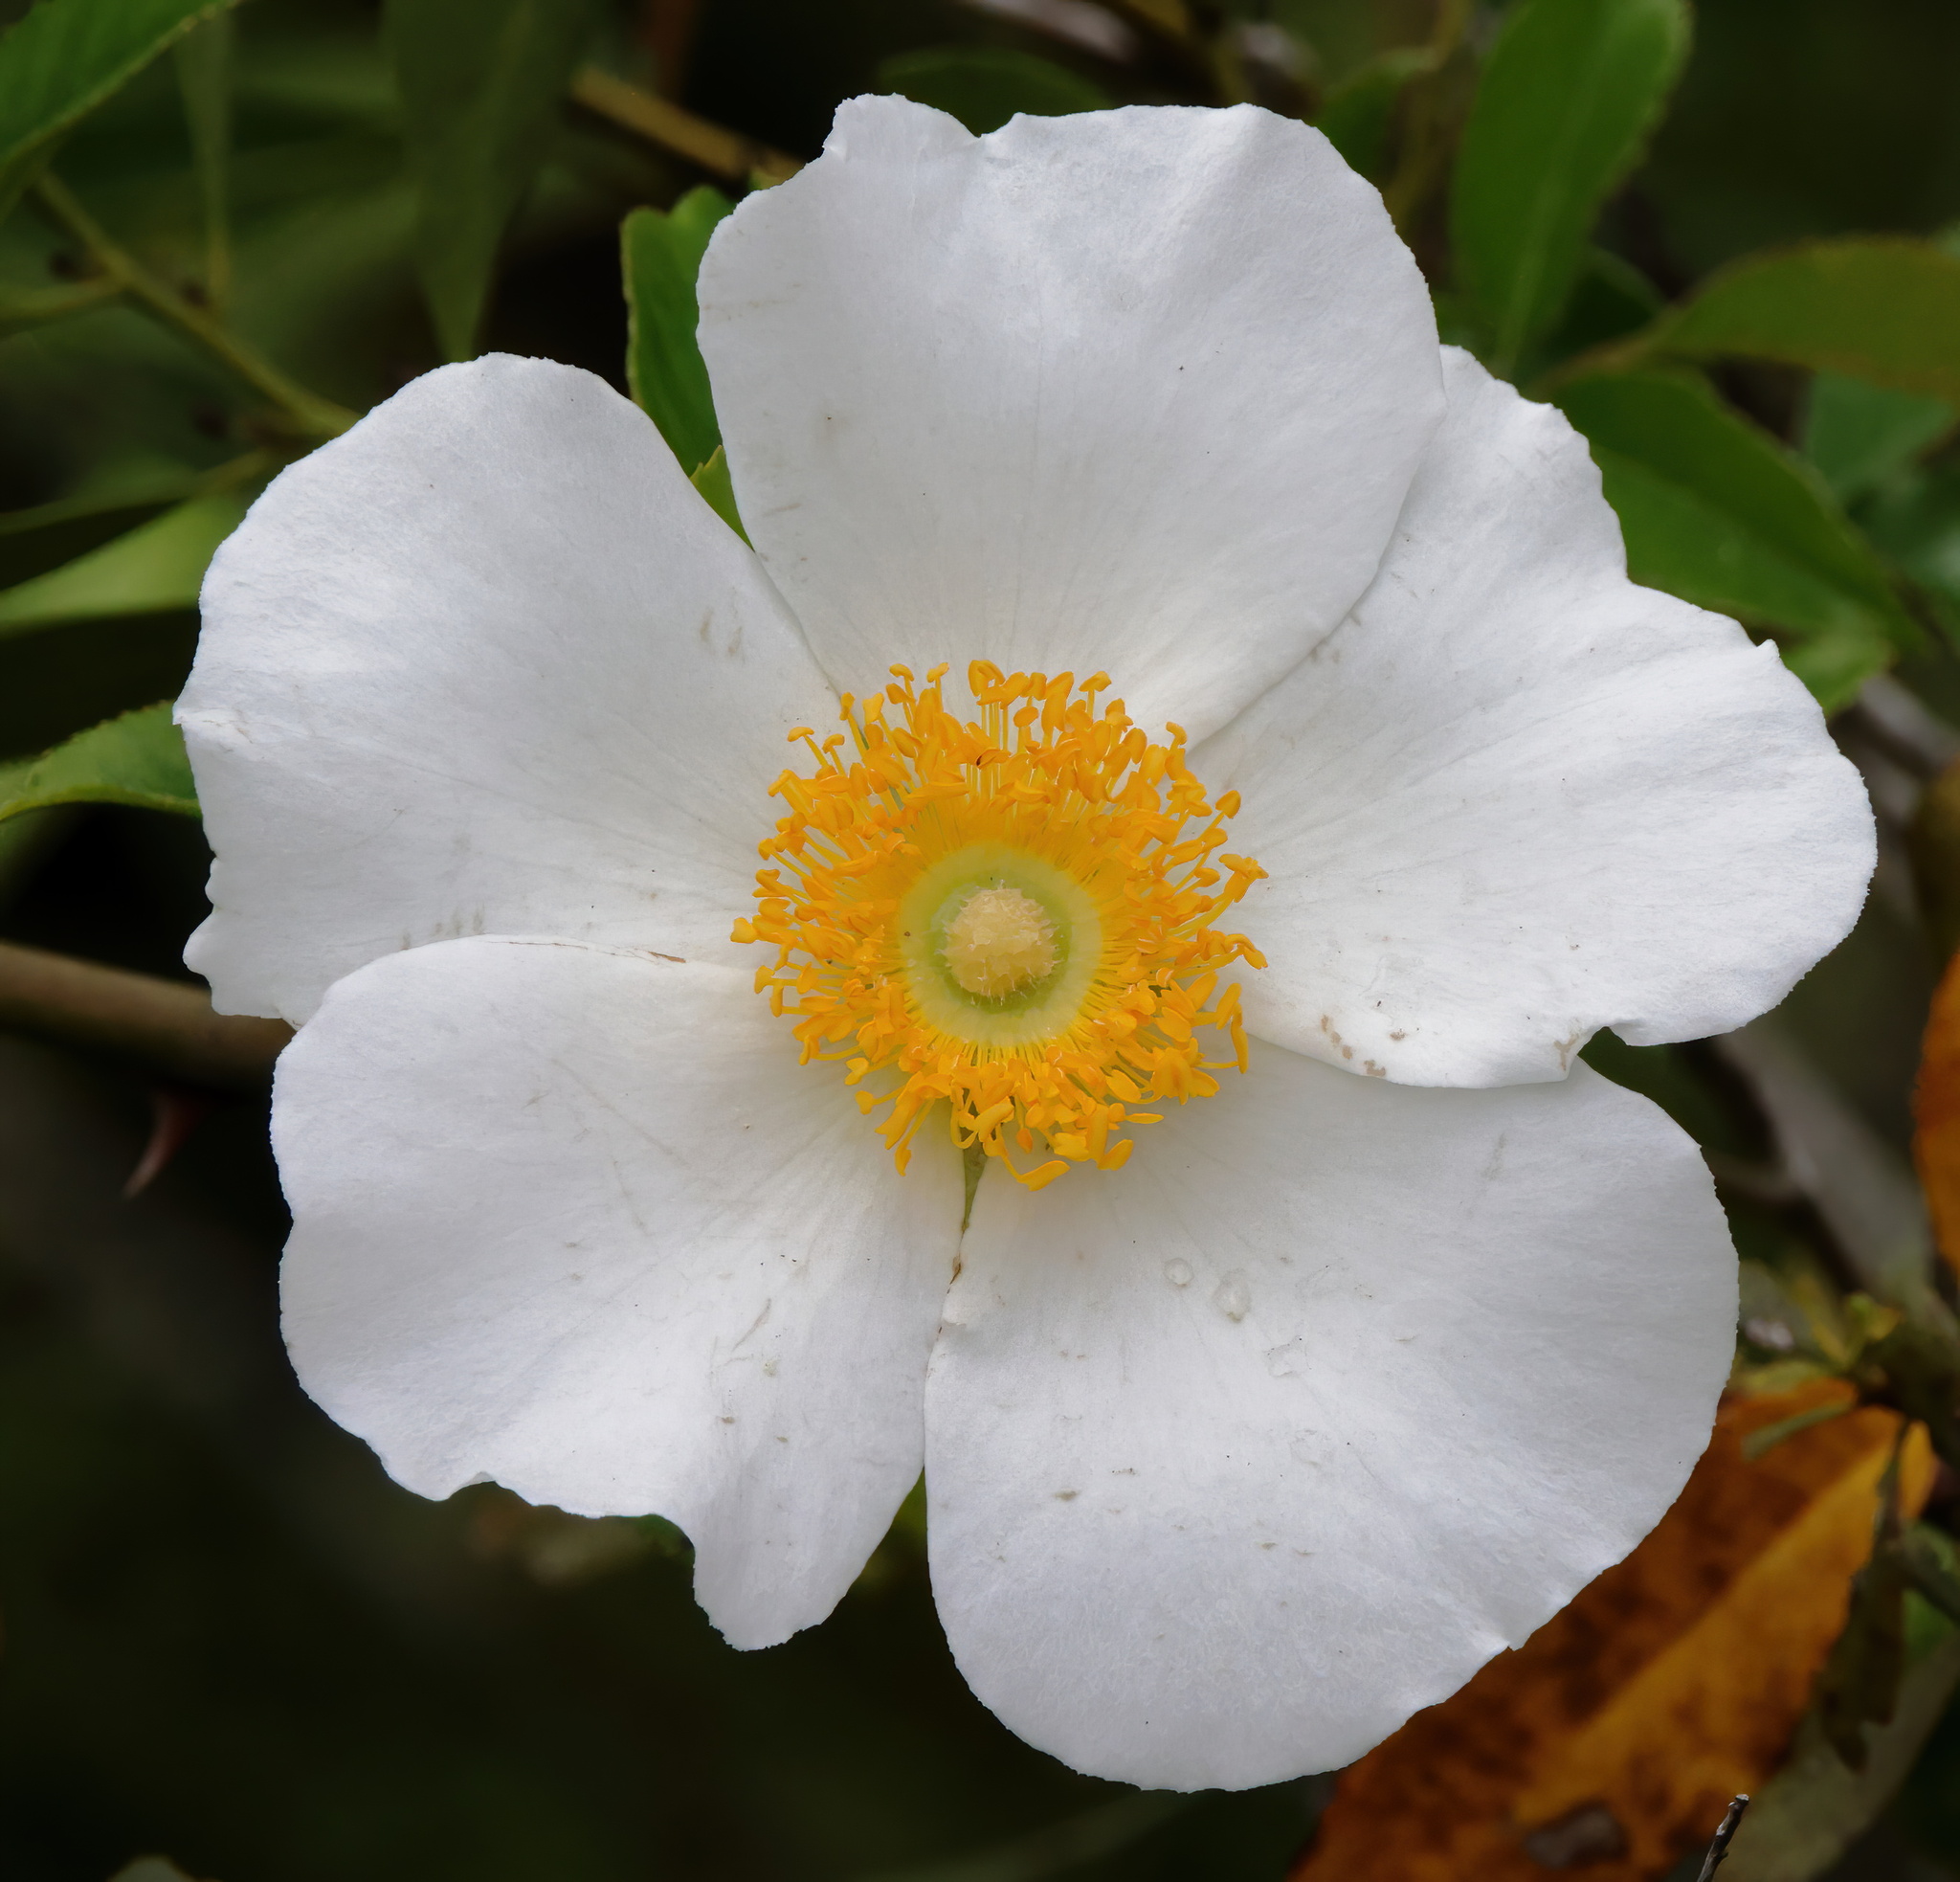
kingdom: Plantae
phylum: Tracheophyta
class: Magnoliopsida
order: Rosales
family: Rosaceae
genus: Rosa
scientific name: Rosa laevigata
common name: Cherokee rose
